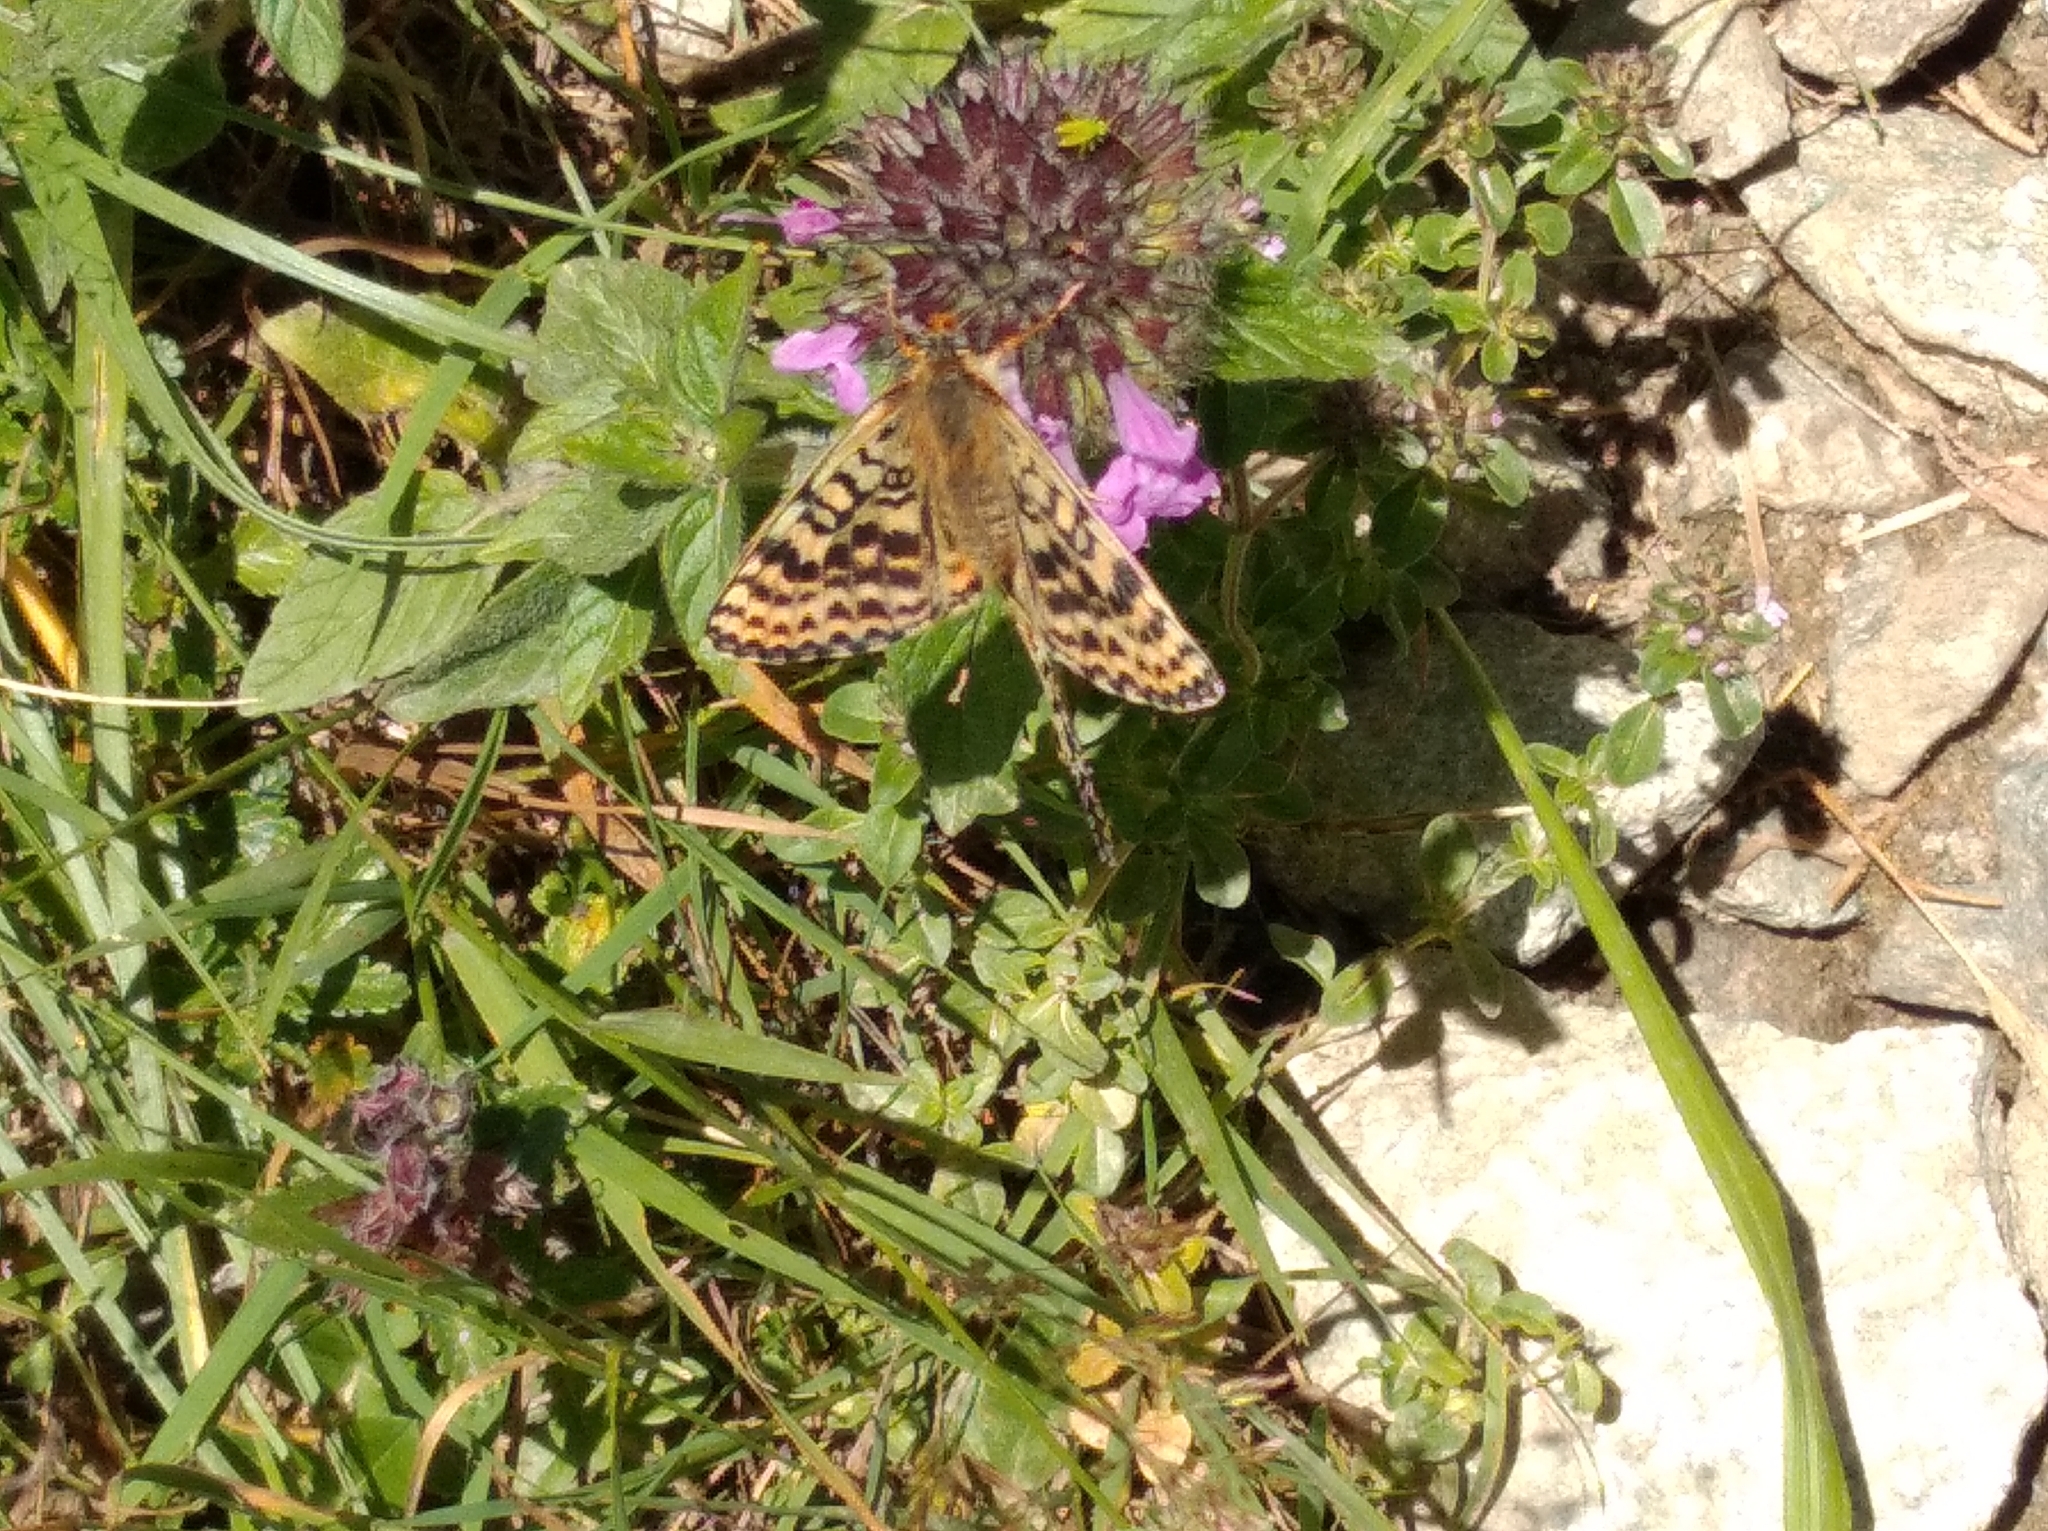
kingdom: Animalia
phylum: Arthropoda
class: Insecta
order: Lepidoptera
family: Nymphalidae
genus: Melitaea
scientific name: Melitaea didyma
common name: Spotted fritillary
